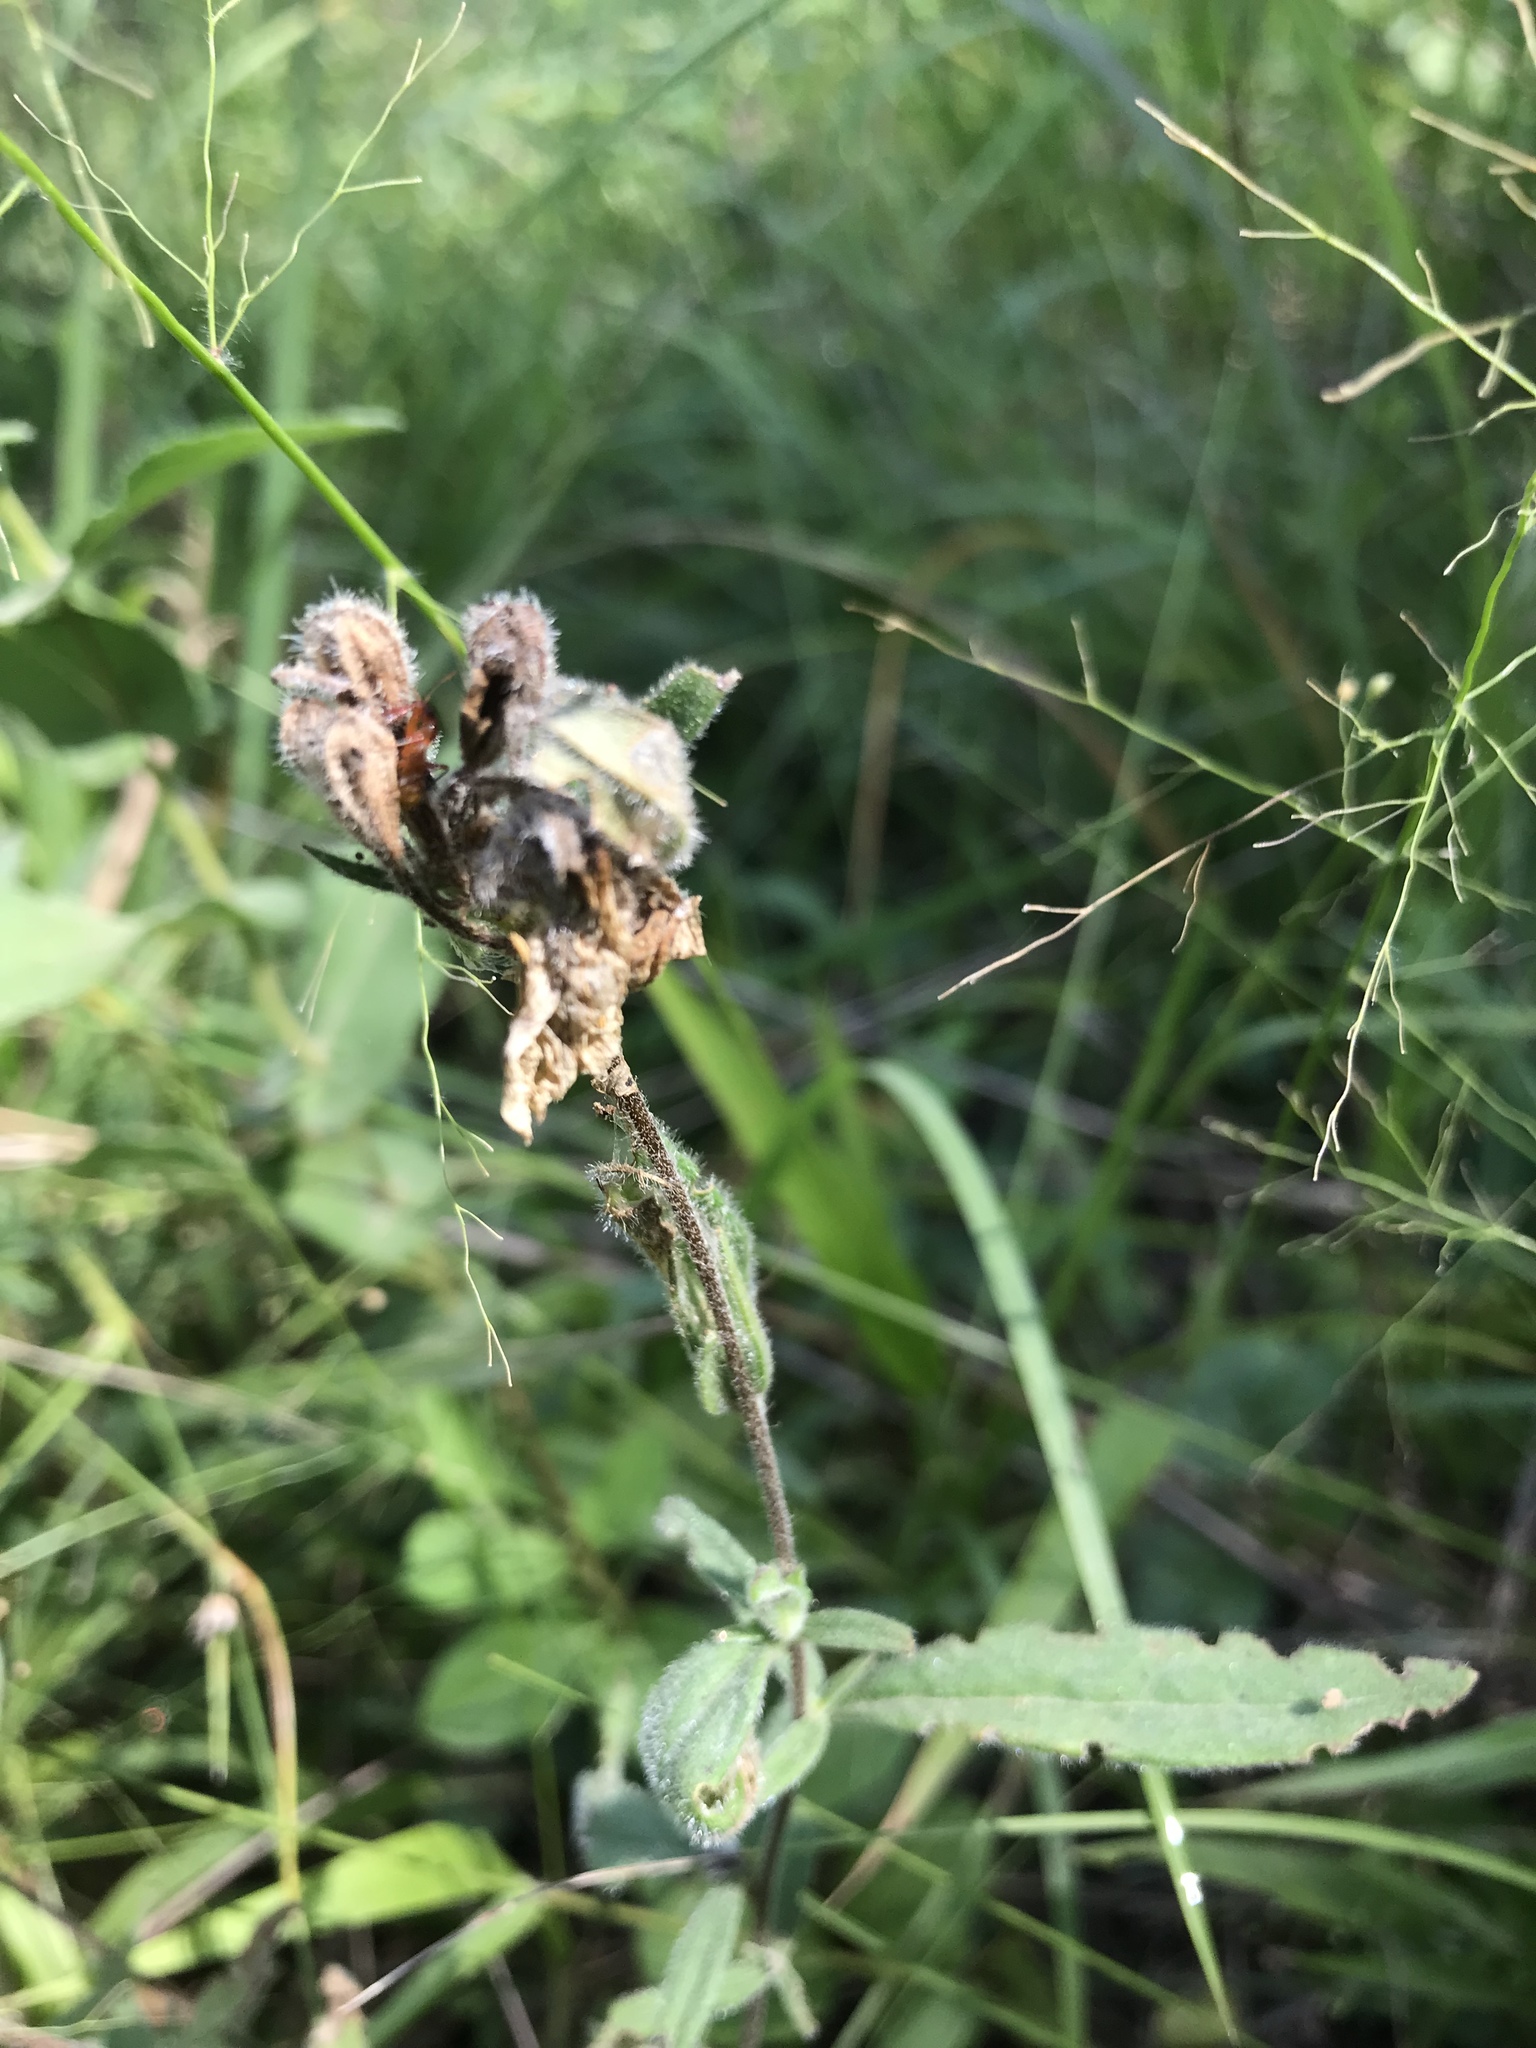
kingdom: Plantae
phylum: Tracheophyta
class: Magnoliopsida
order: Myrtales
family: Onagraceae
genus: Oenothera
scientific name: Oenothera fruticosa
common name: Southern sundrops
